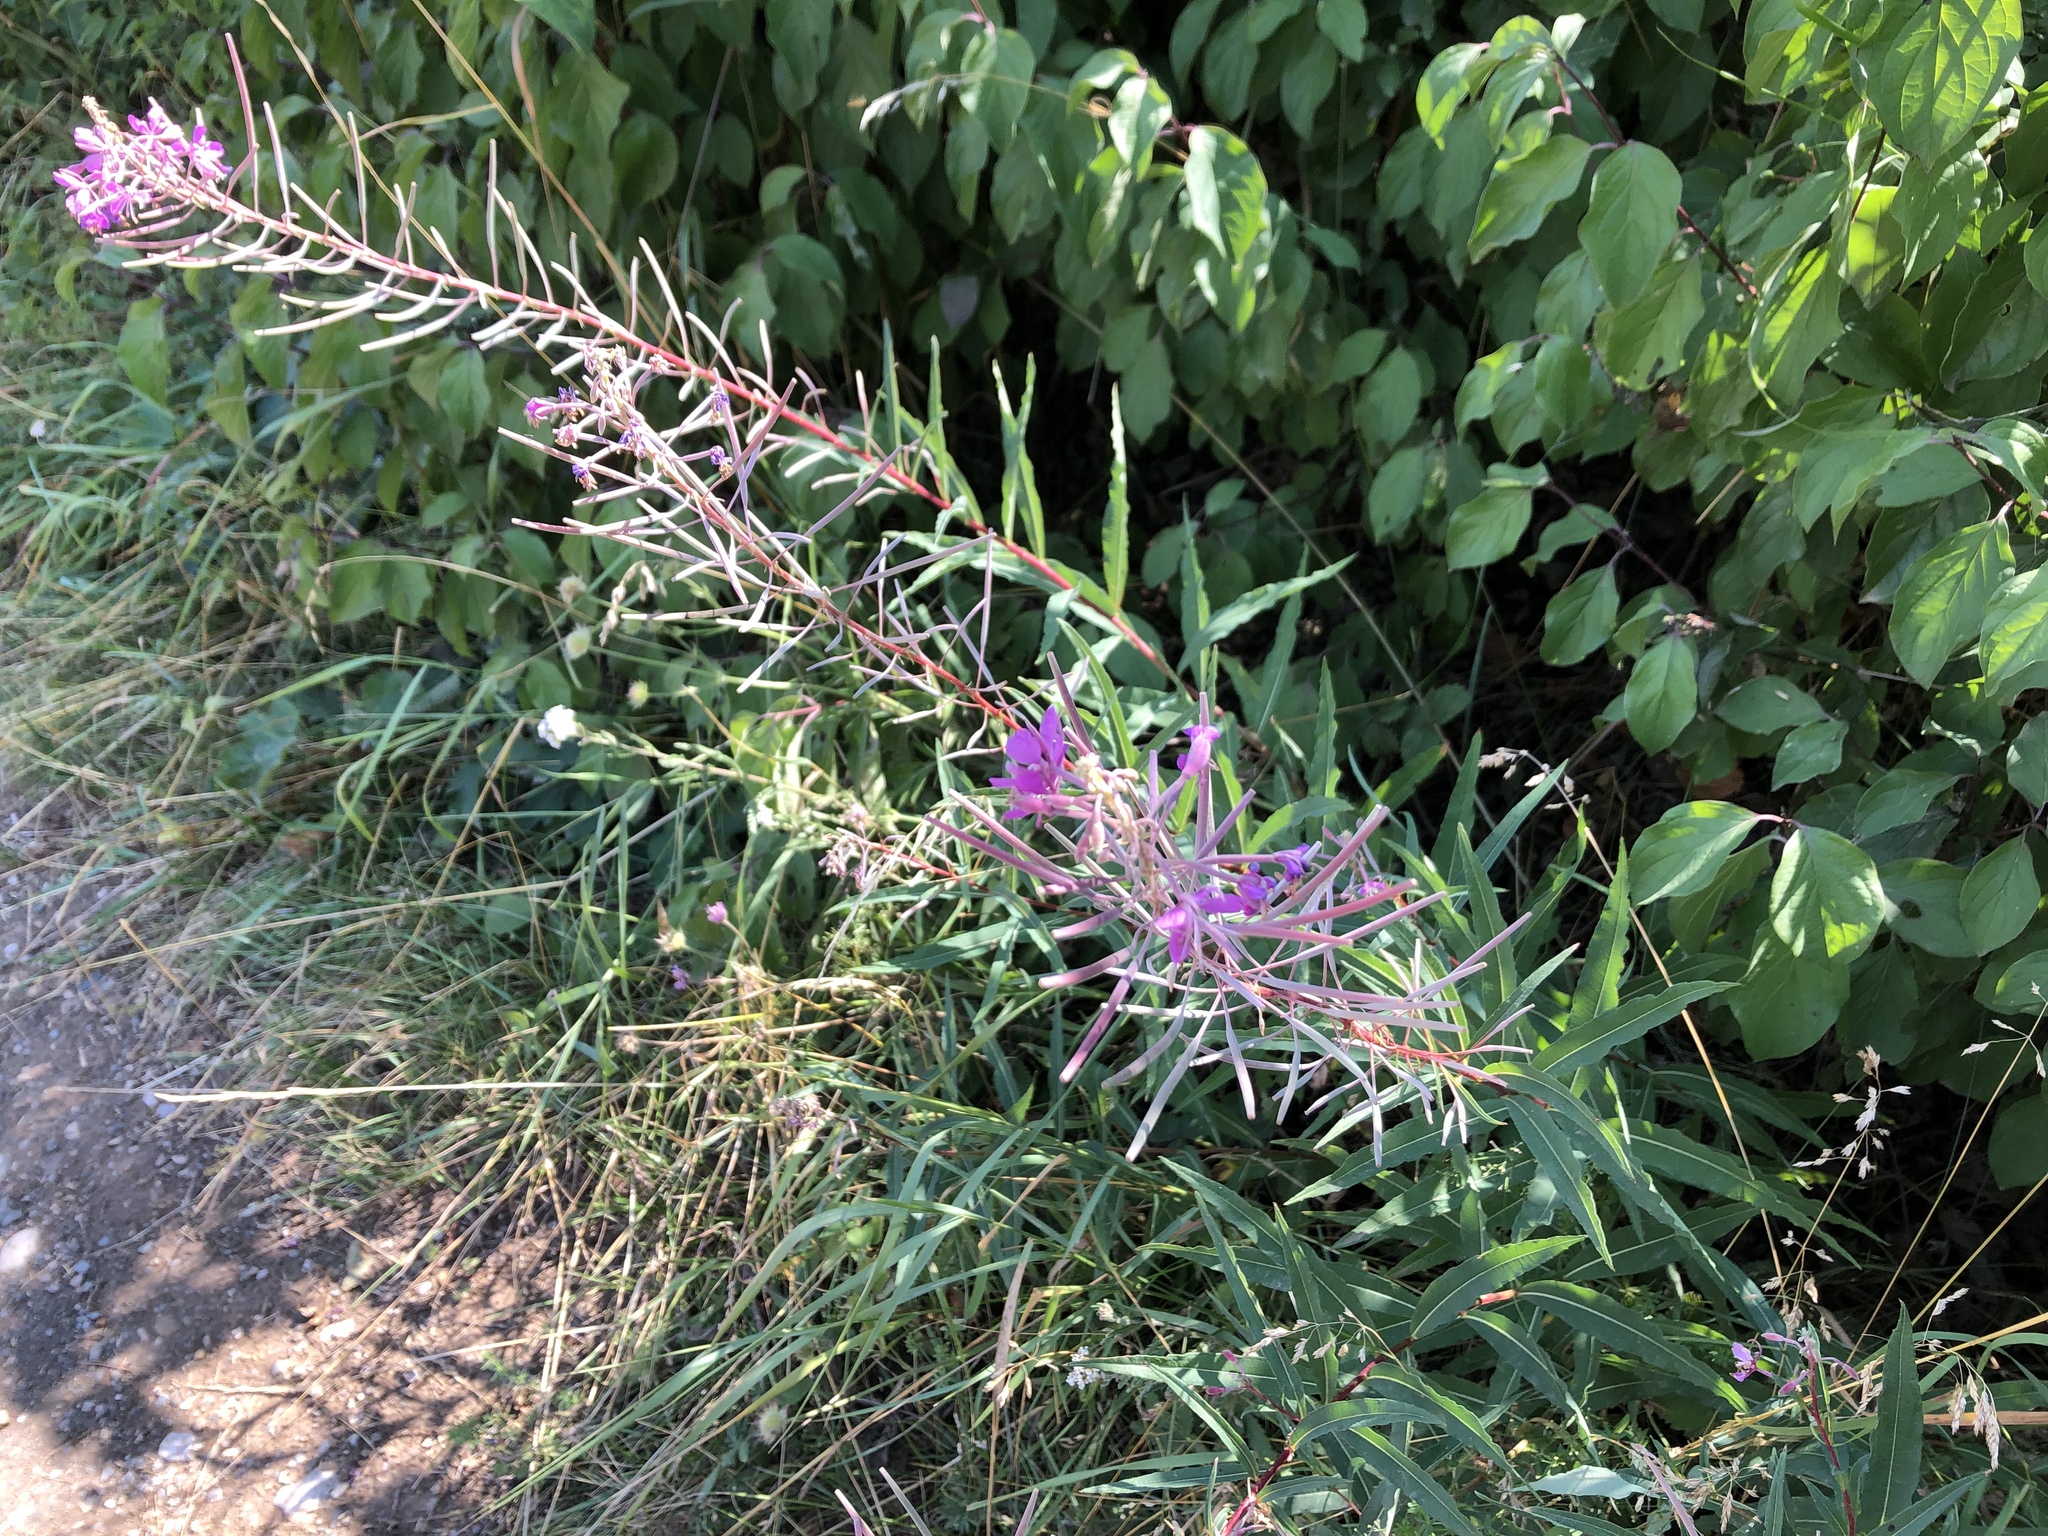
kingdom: Plantae
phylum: Tracheophyta
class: Magnoliopsida
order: Myrtales
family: Onagraceae
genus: Chamaenerion
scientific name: Chamaenerion angustifolium
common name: Fireweed
